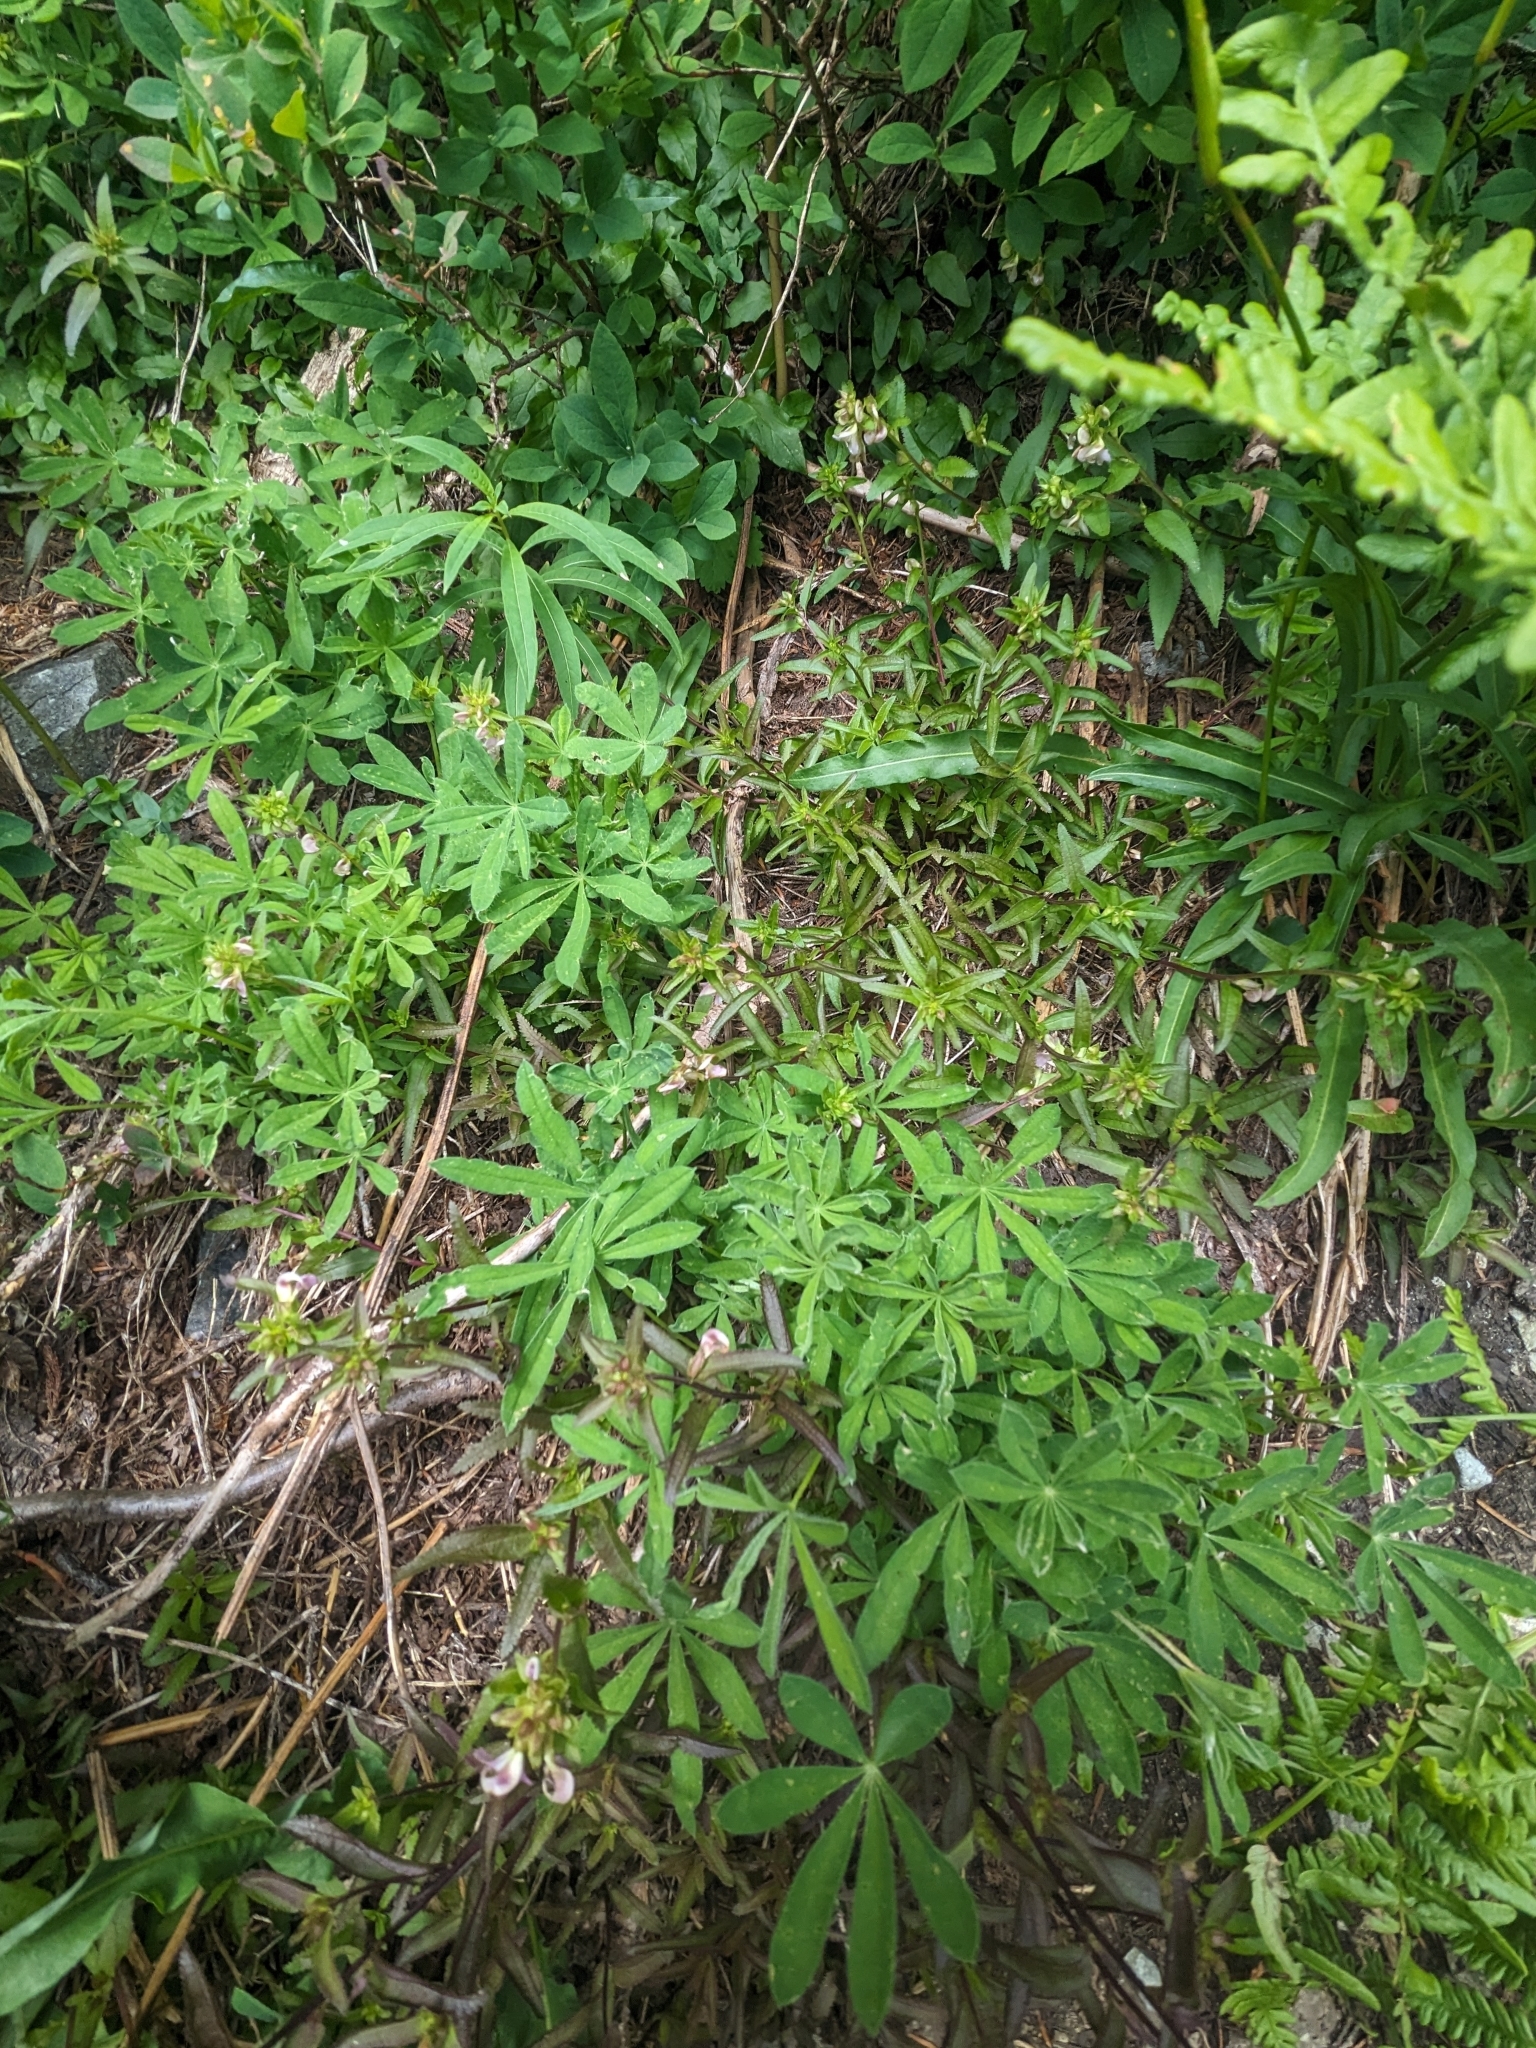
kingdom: Plantae
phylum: Tracheophyta
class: Magnoliopsida
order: Lamiales
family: Orobanchaceae
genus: Pedicularis
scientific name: Pedicularis racemosa
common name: Leafy lousewort
